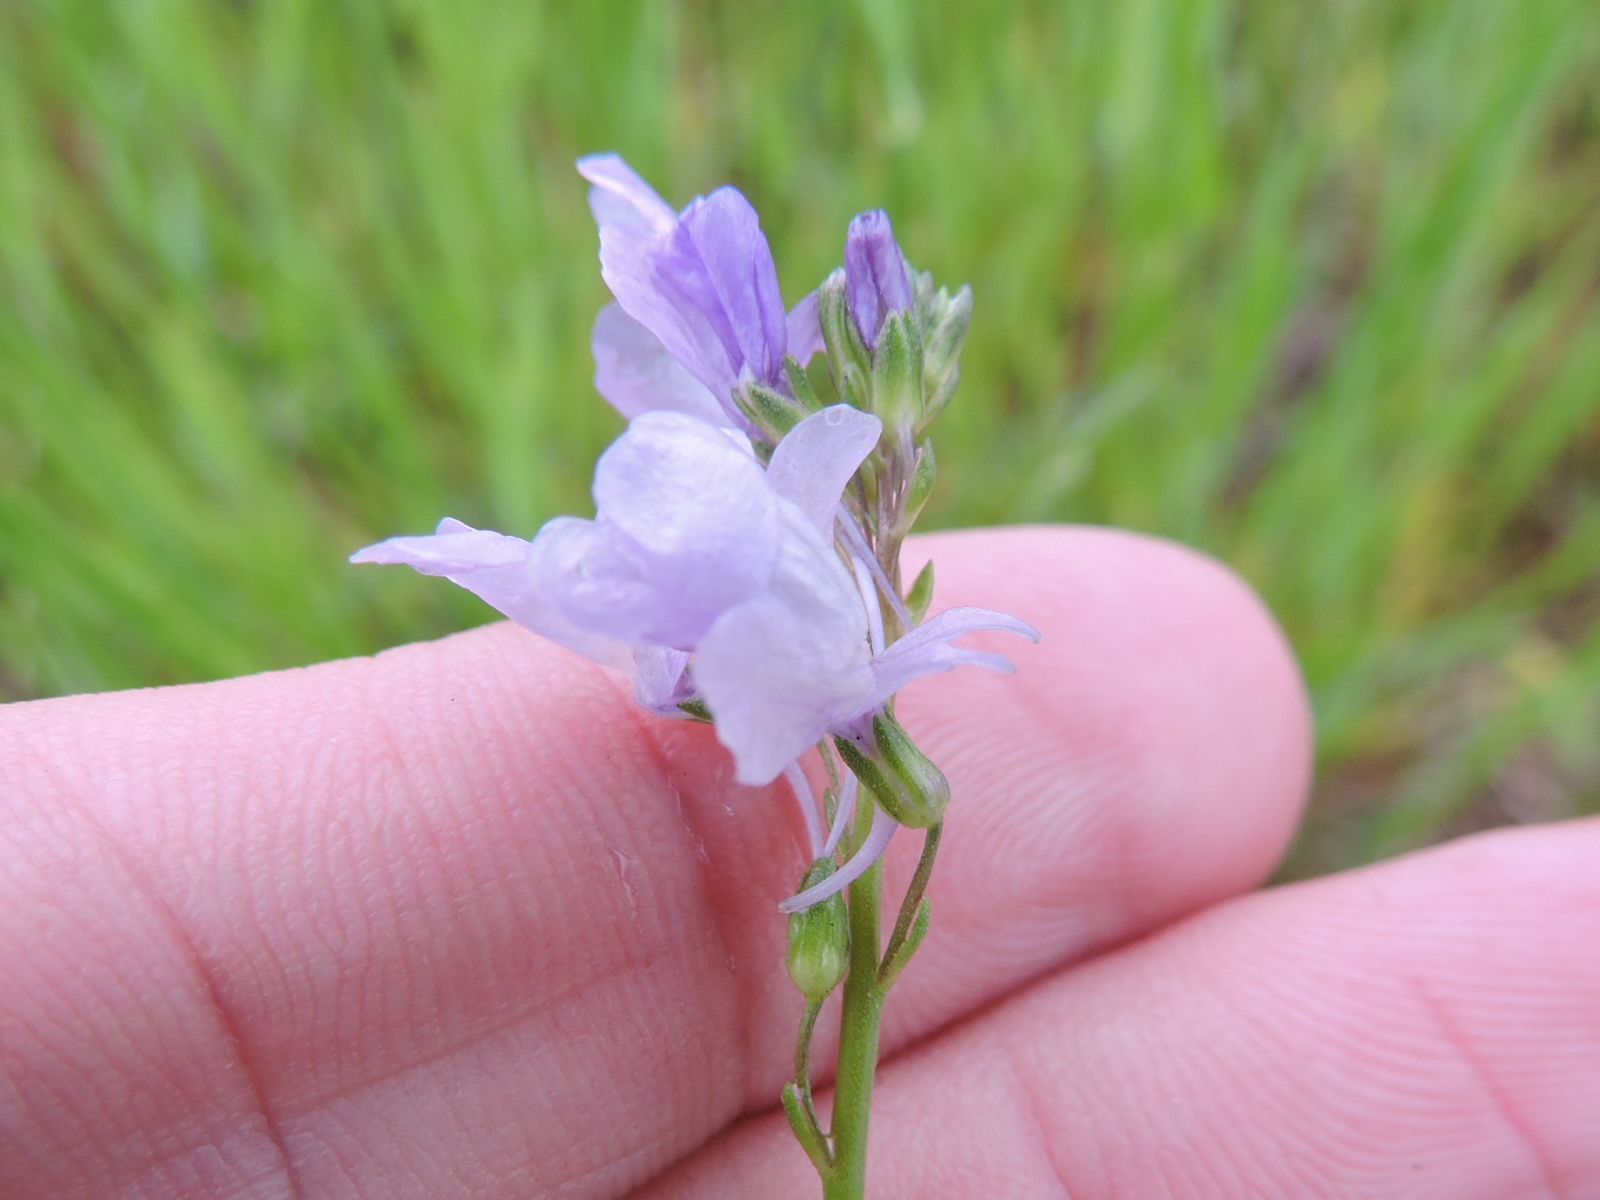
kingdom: Plantae
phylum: Tracheophyta
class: Magnoliopsida
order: Lamiales
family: Plantaginaceae
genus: Nuttallanthus
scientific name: Nuttallanthus texanus
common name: Texas toadflax
